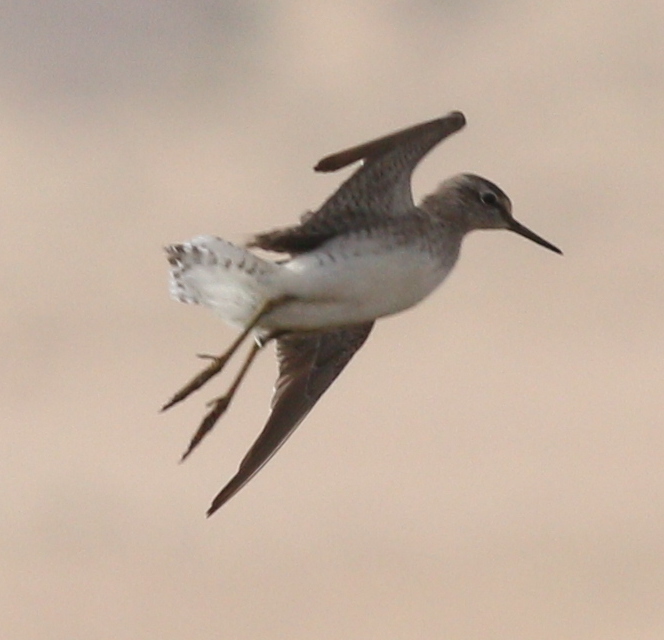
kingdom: Animalia
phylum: Chordata
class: Aves
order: Charadriiformes
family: Scolopacidae
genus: Tringa
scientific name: Tringa glareola
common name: Wood sandpiper
